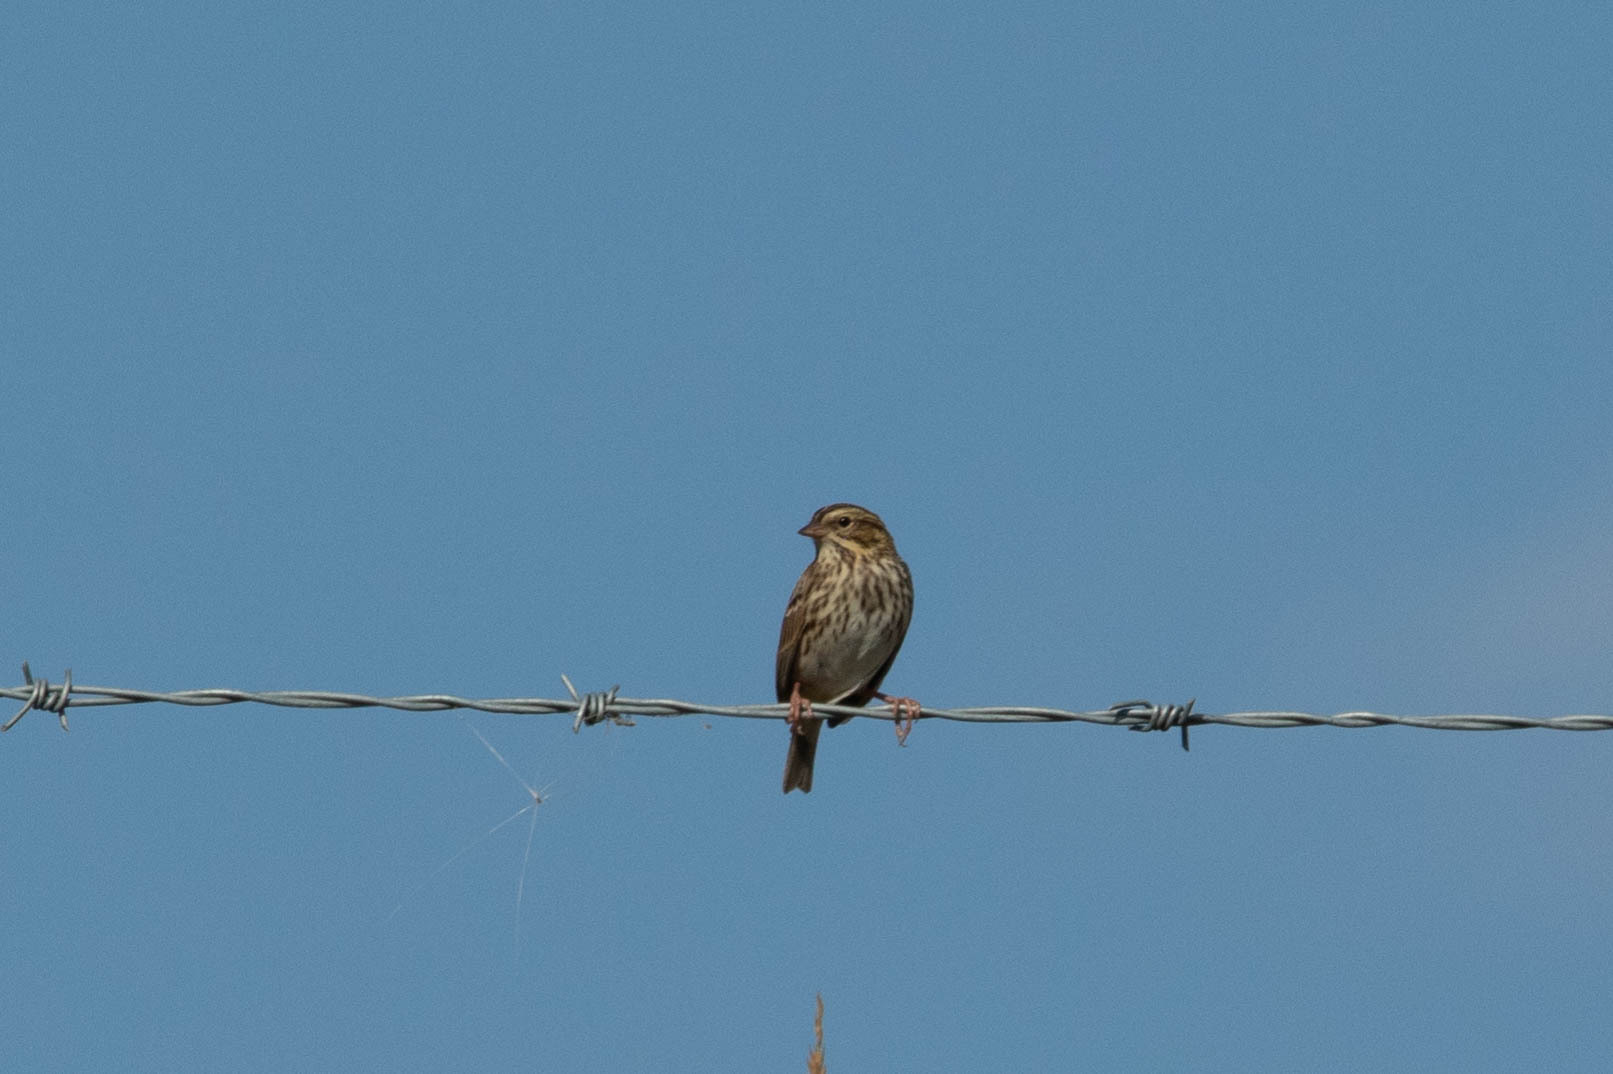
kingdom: Animalia
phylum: Chordata
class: Aves
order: Passeriformes
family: Passerellidae
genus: Passerculus
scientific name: Passerculus sandwichensis
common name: Savannah sparrow
